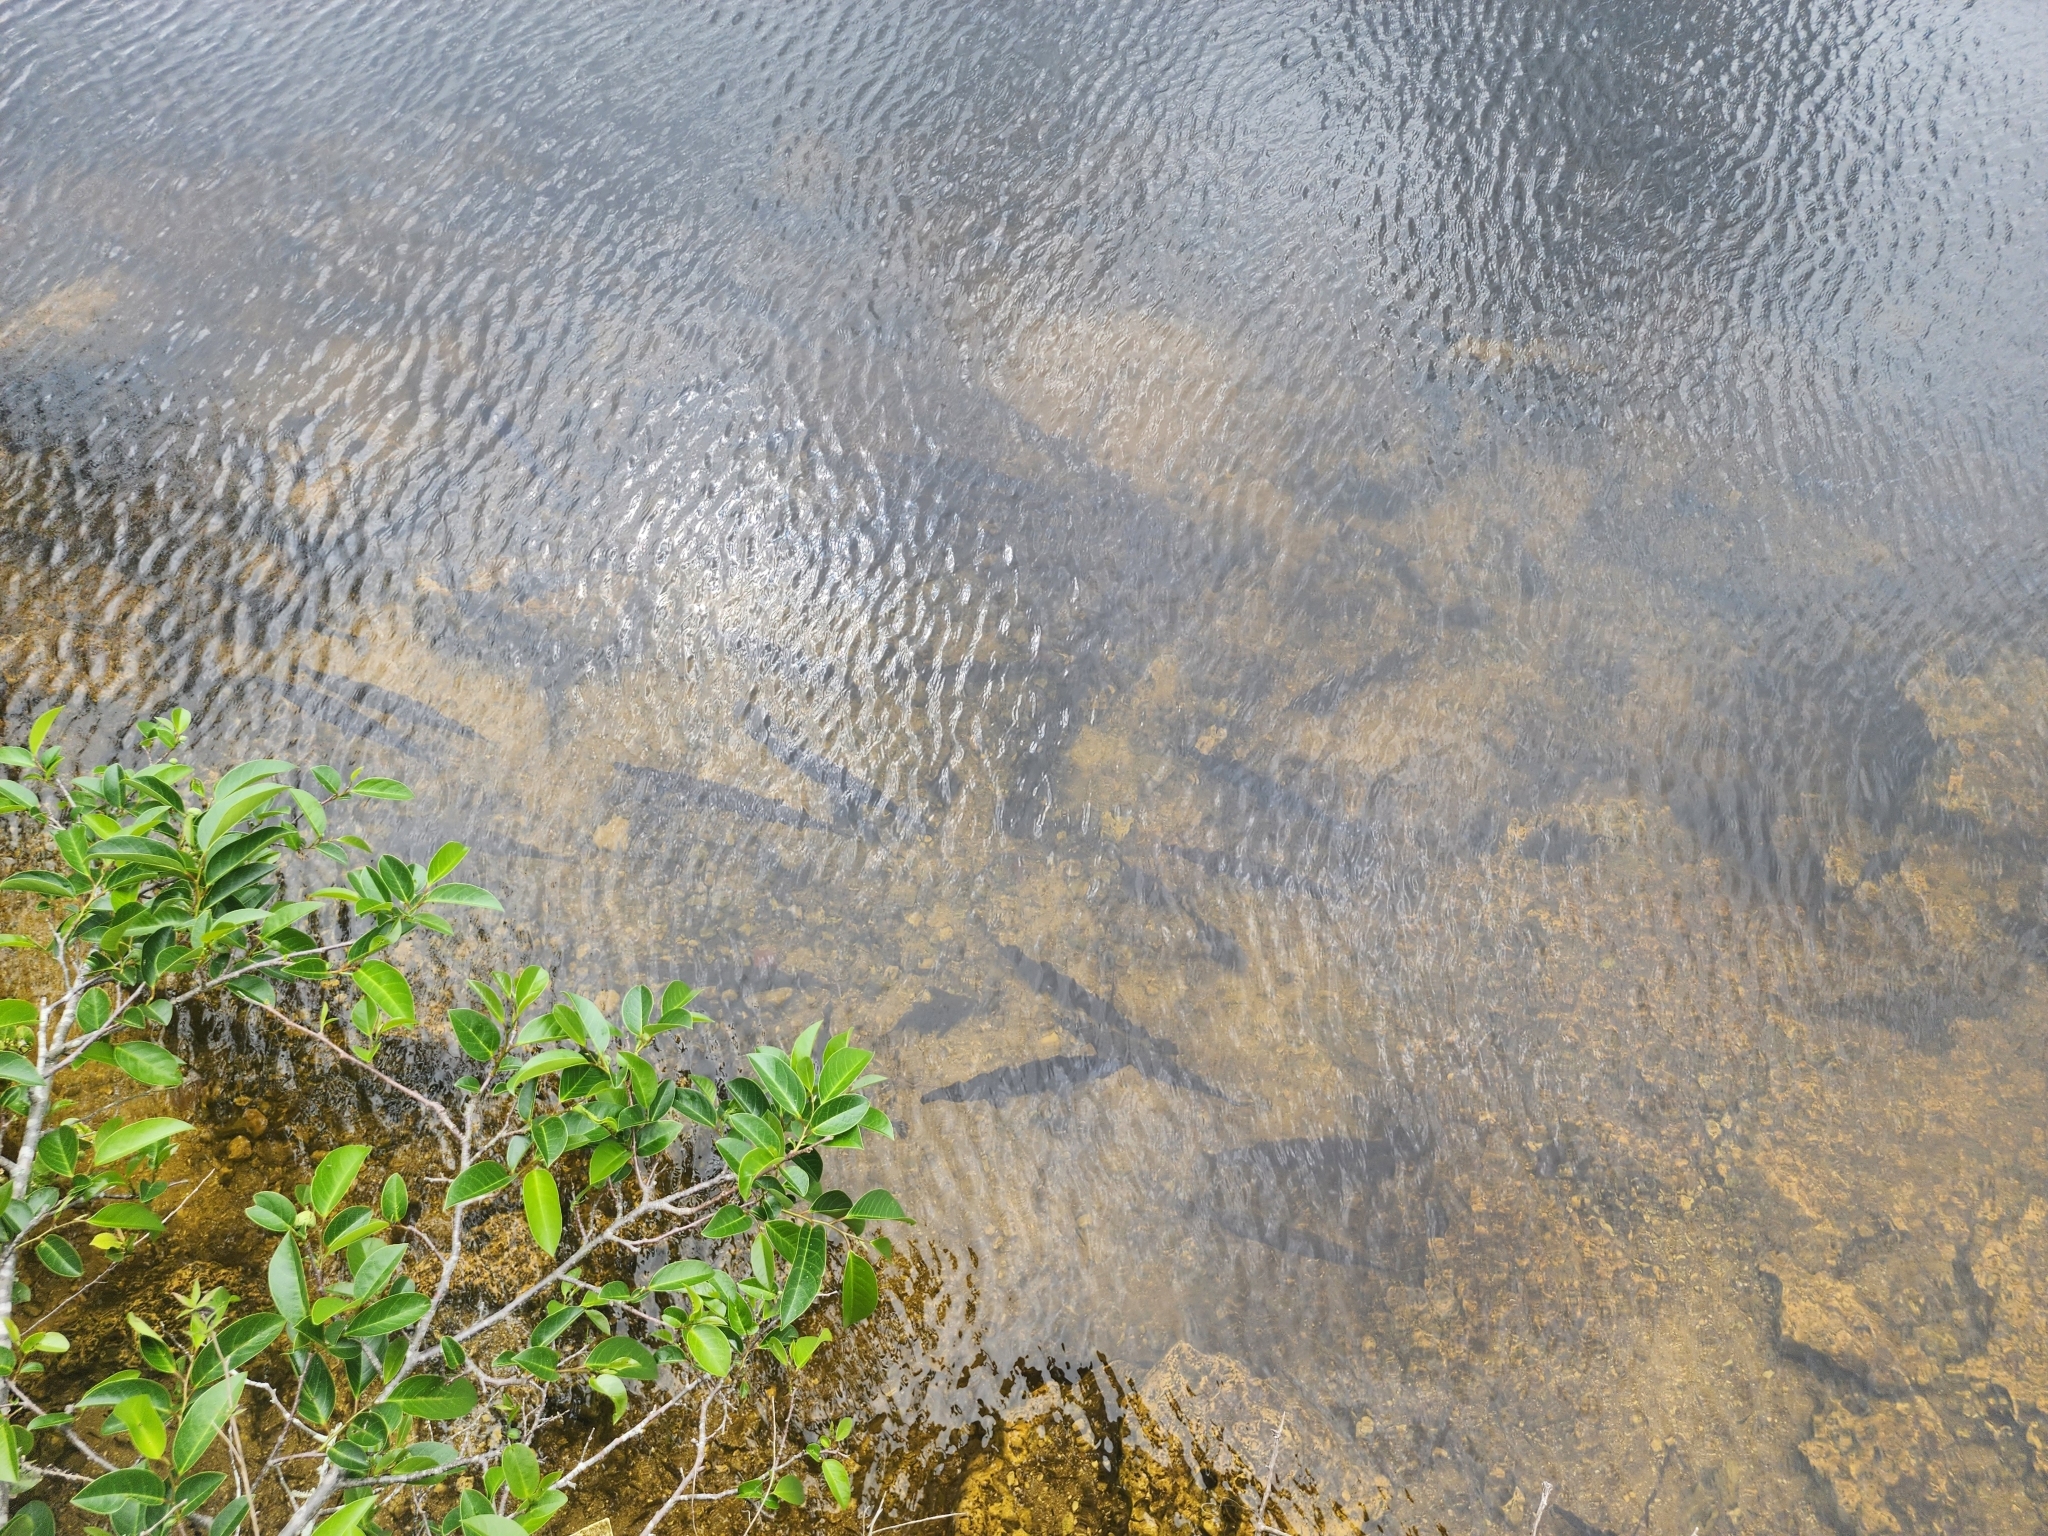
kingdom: Animalia
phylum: Chordata
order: Lepisosteiformes
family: Lepisosteidae
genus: Lepisosteus
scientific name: Lepisosteus platyrhincus
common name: Florida gar
